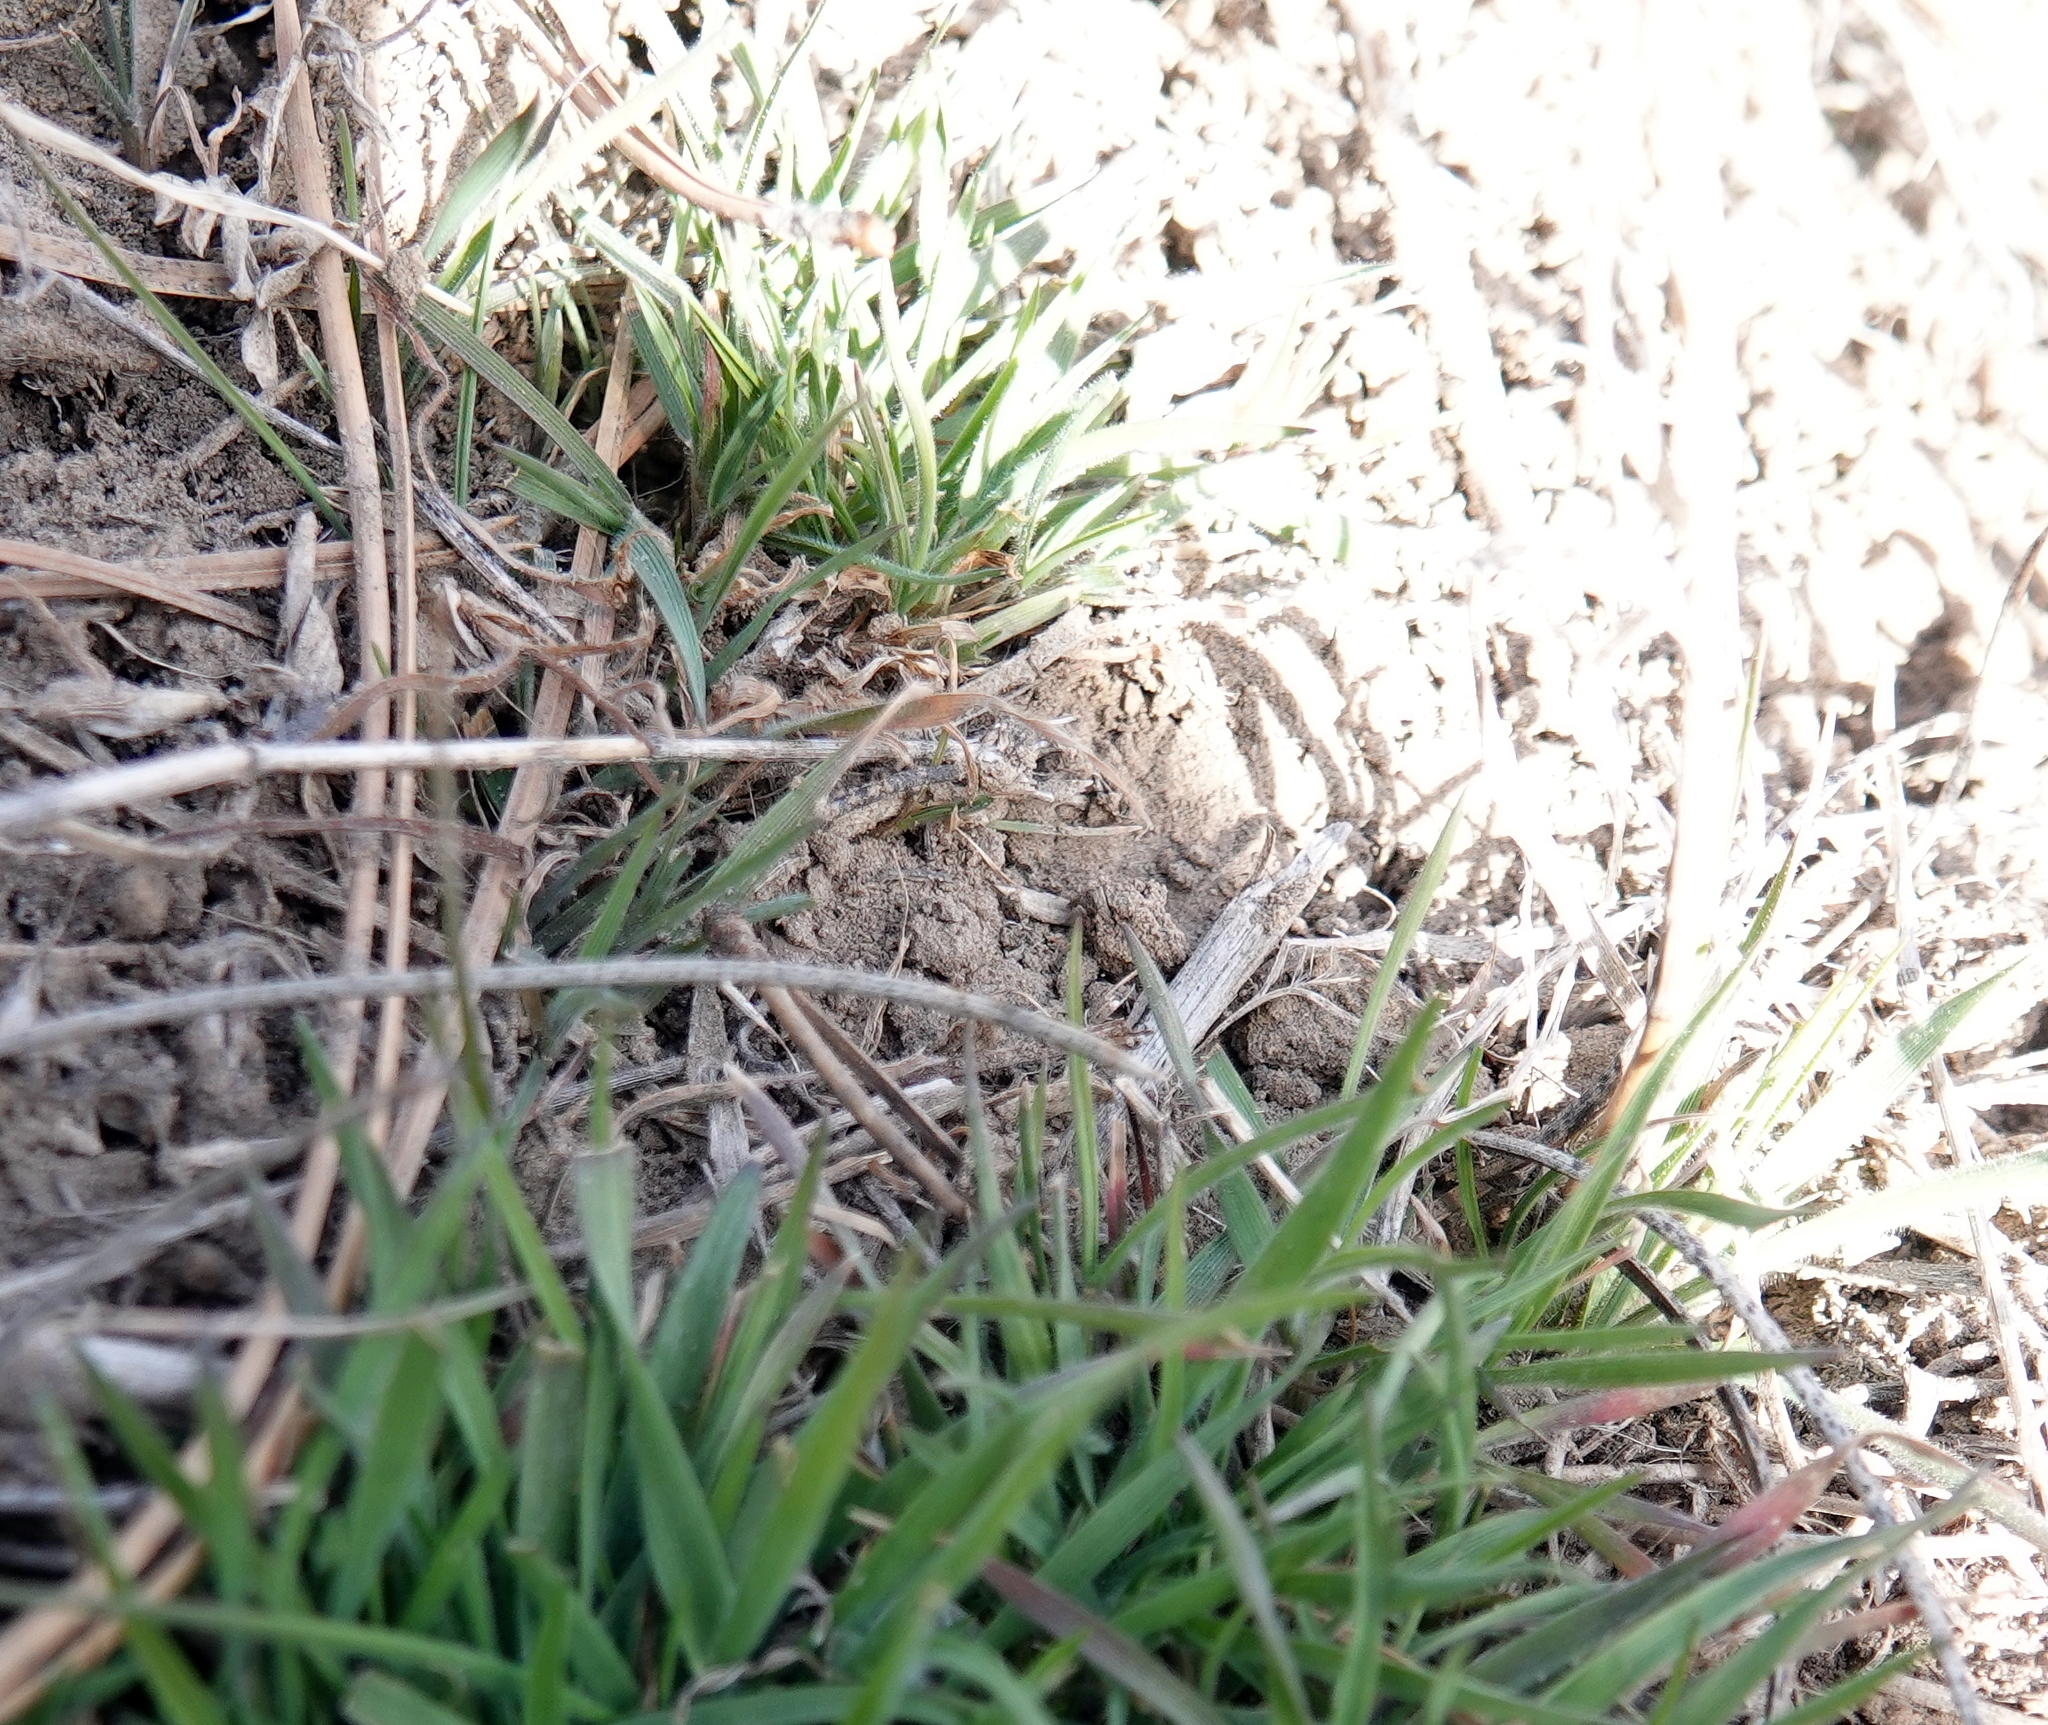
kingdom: Plantae
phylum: Tracheophyta
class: Liliopsida
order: Poales
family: Poaceae
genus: Bromus
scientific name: Bromus tectorum
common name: Cheatgrass
